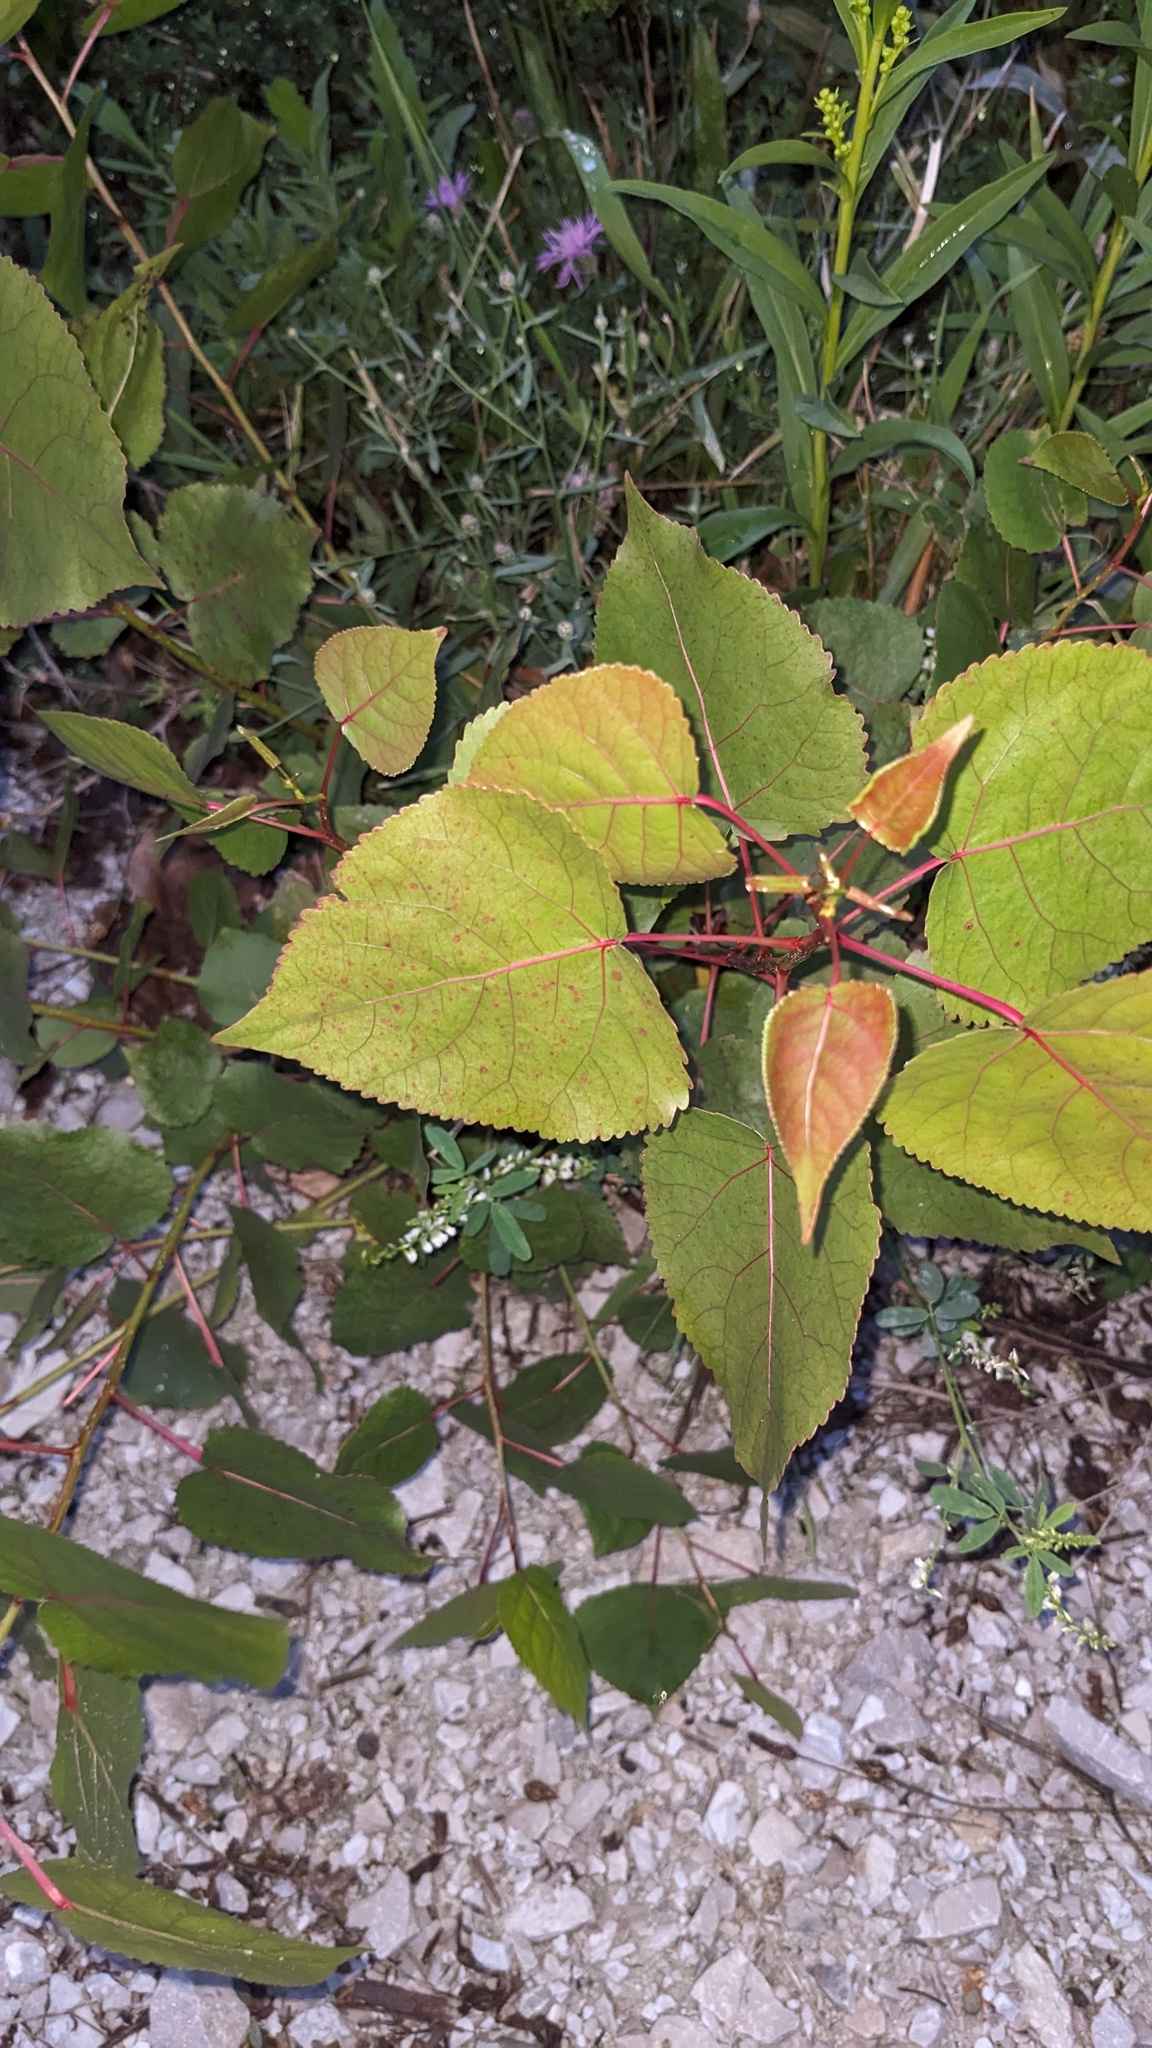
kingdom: Plantae
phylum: Tracheophyta
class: Magnoliopsida
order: Malpighiales
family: Salicaceae
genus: Populus
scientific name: Populus deltoides
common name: Eastern cottonwood
